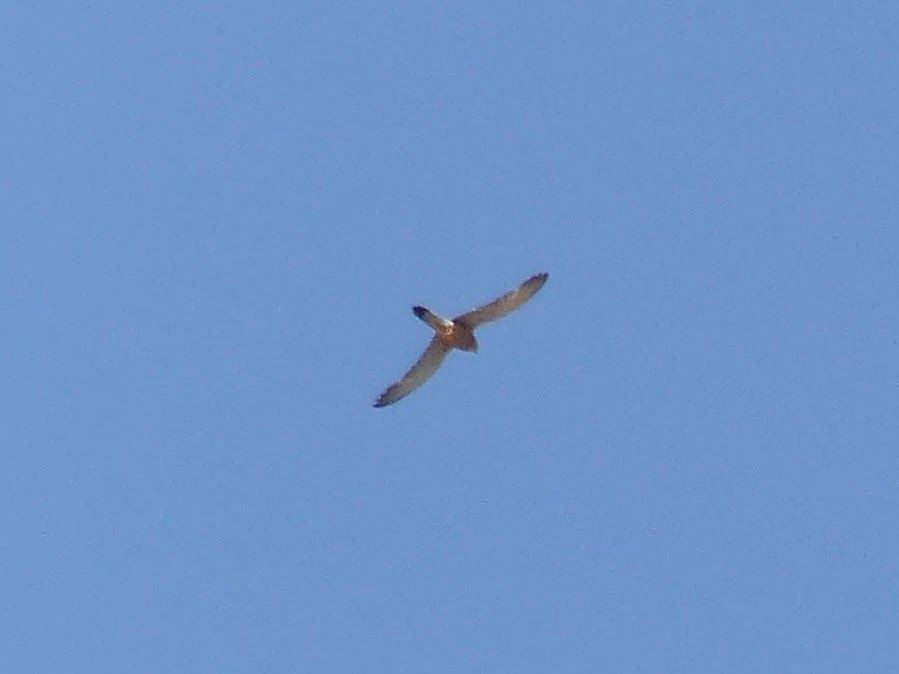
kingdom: Animalia
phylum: Chordata
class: Aves
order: Falconiformes
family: Falconidae
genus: Falco
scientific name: Falco naumanni
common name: Lesser kestrel
